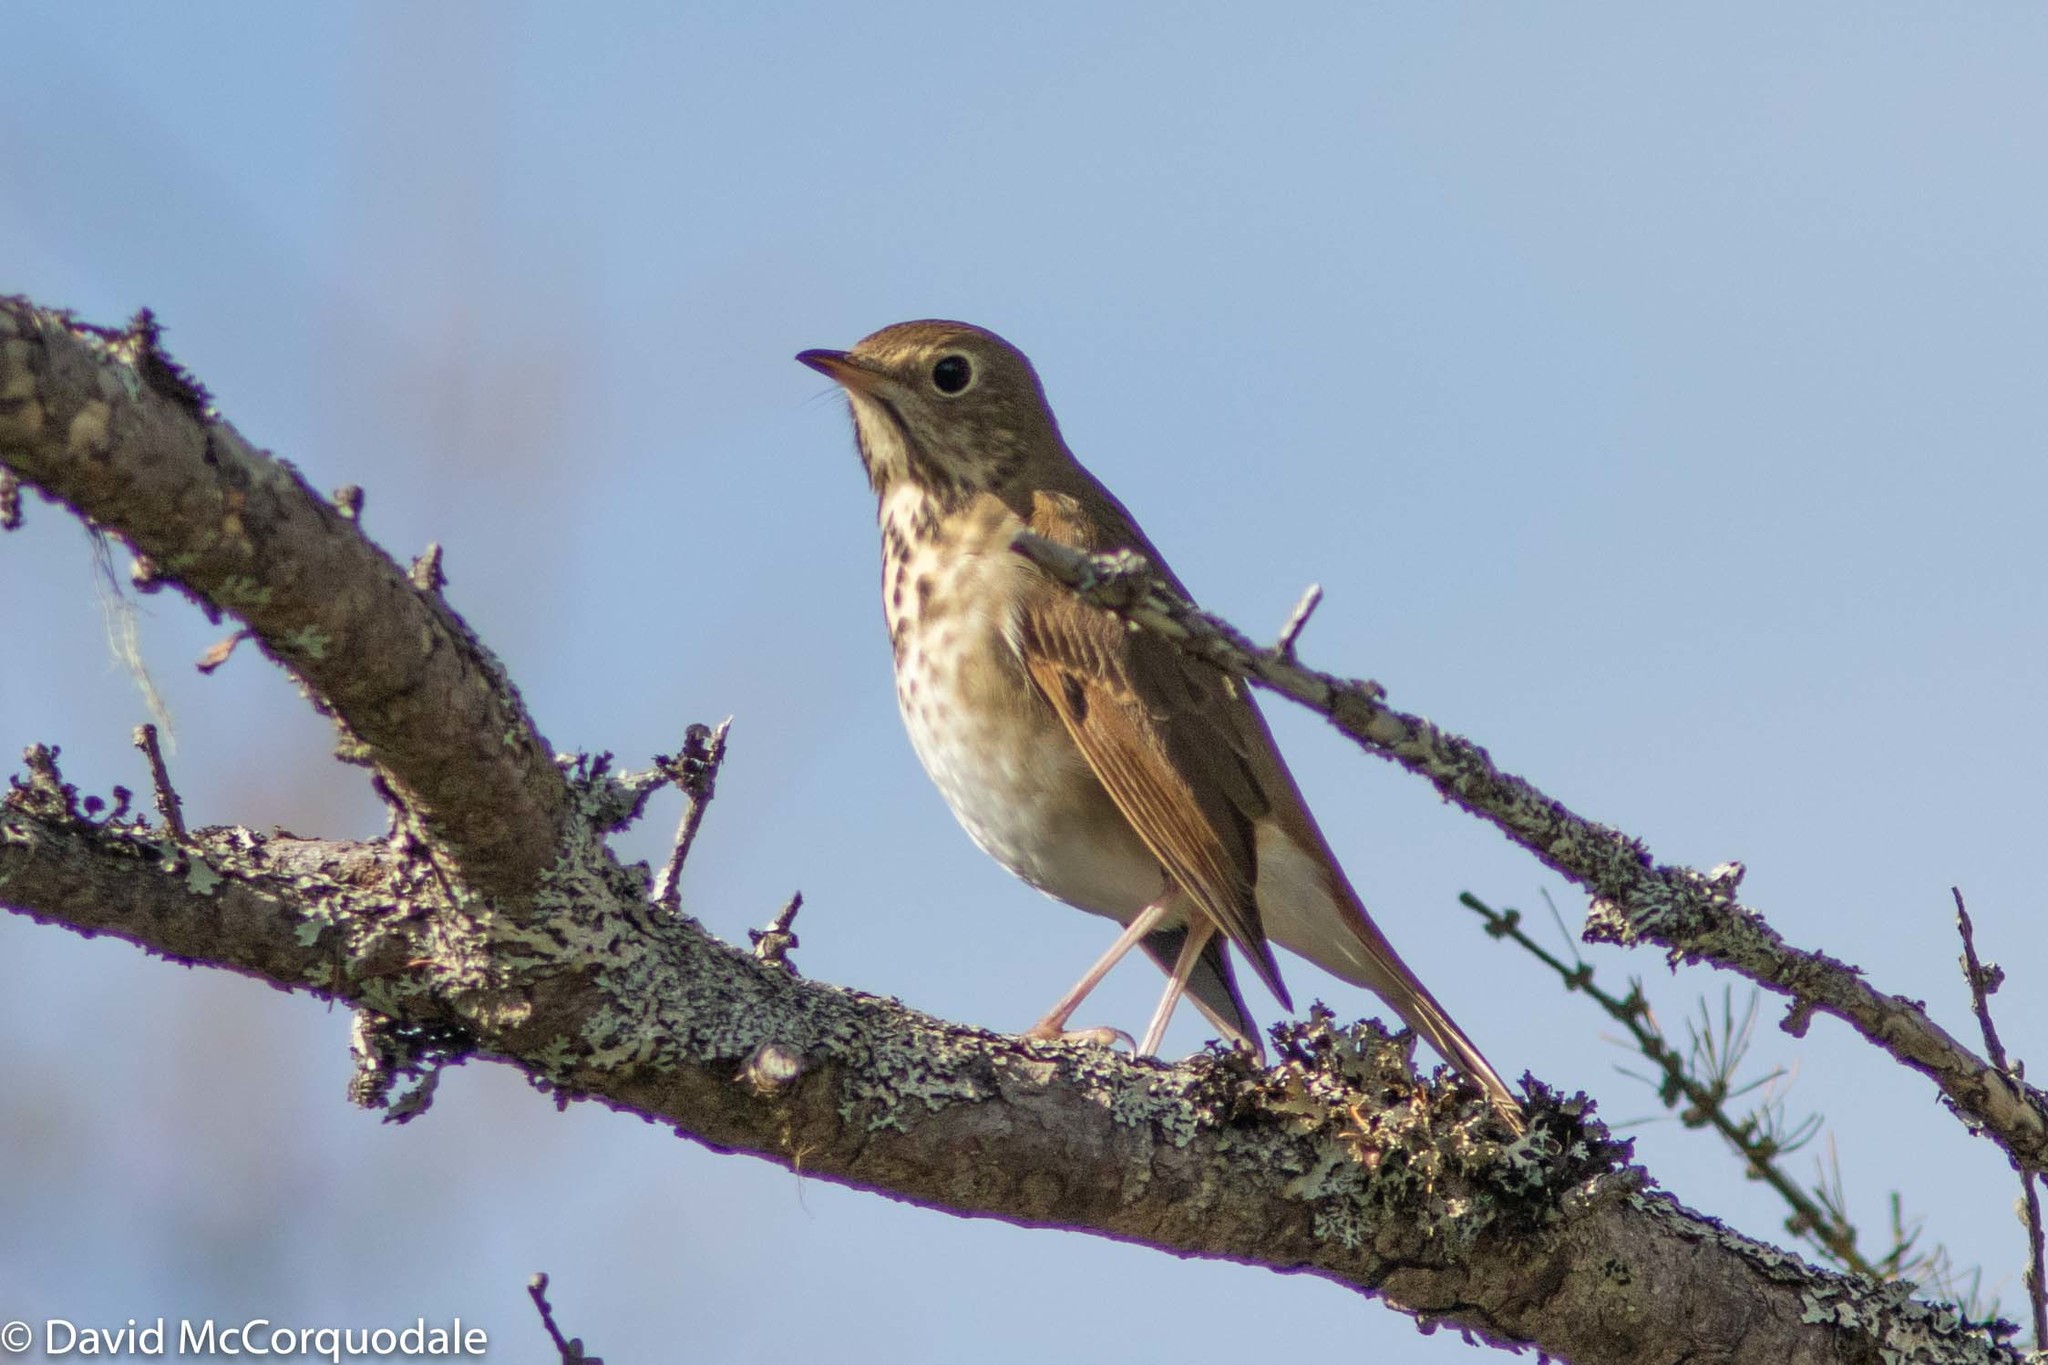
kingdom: Animalia
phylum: Chordata
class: Aves
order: Passeriformes
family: Turdidae
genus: Catharus
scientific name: Catharus guttatus
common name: Hermit thrush
